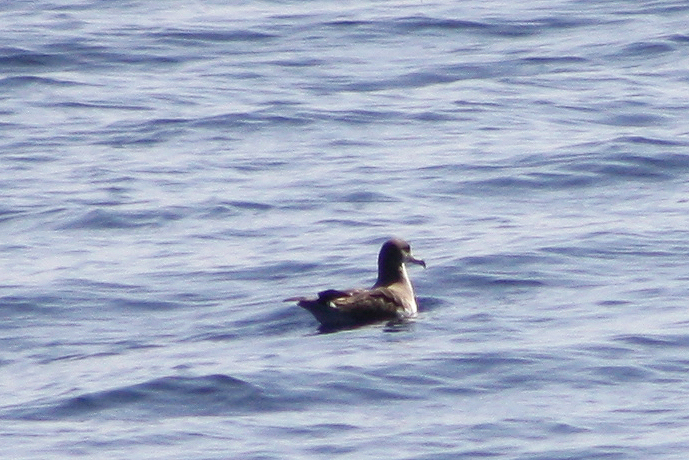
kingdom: Animalia
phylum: Chordata
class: Aves
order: Procellariiformes
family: Procellariidae
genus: Calonectris
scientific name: Calonectris diomedea
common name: Cory's shearwater
